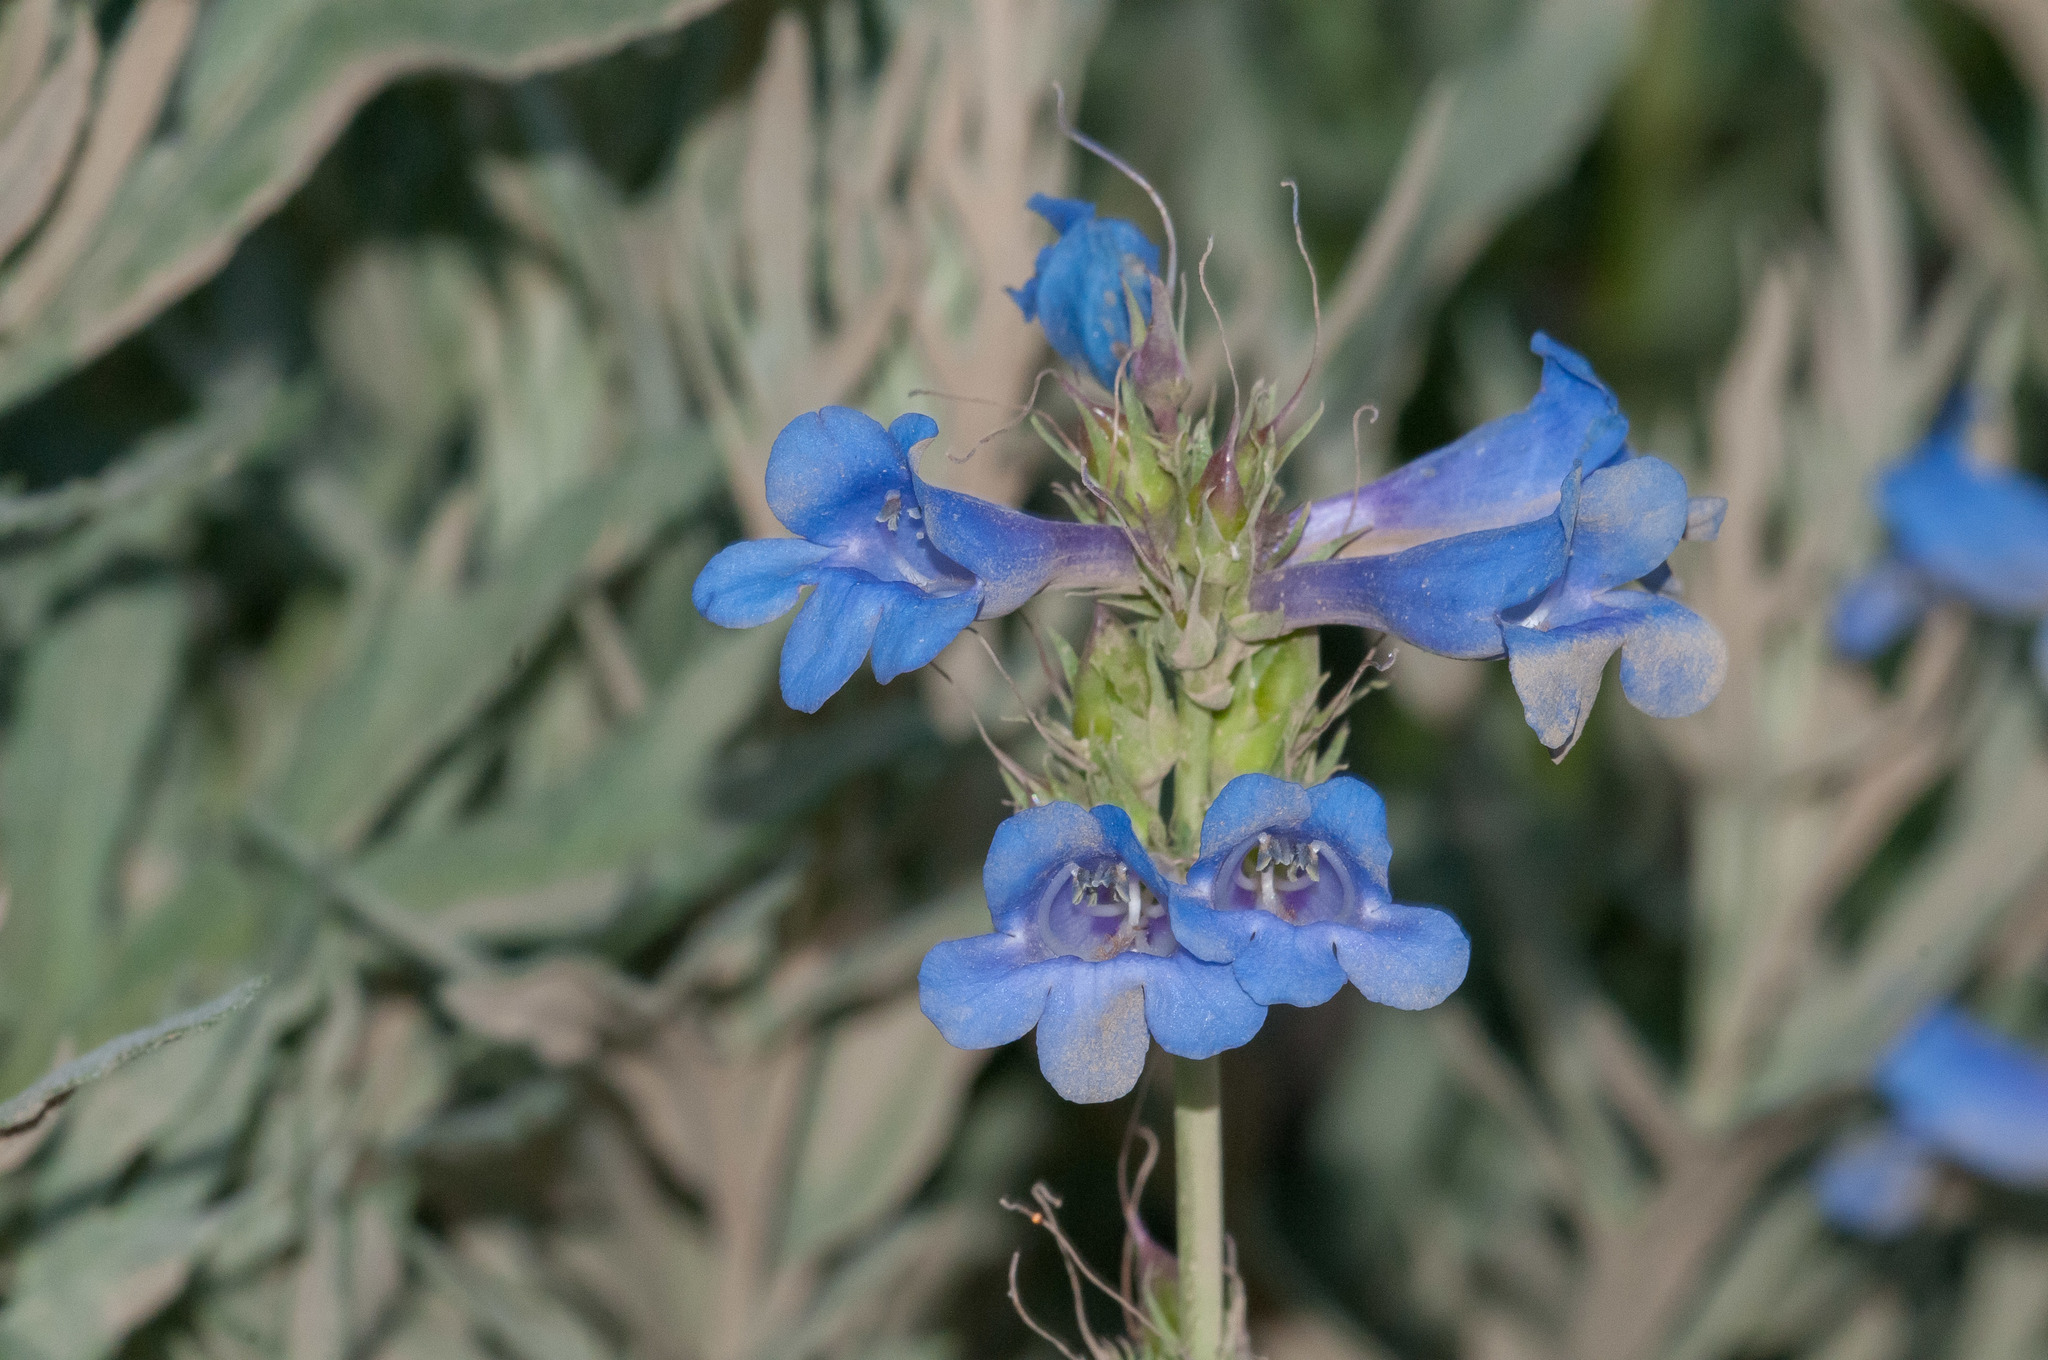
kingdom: Plantae
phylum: Tracheophyta
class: Magnoliopsida
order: Lamiales
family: Plantaginaceae
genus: Penstemon
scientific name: Penstemon cyananthus
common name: Wasatch penstemon
